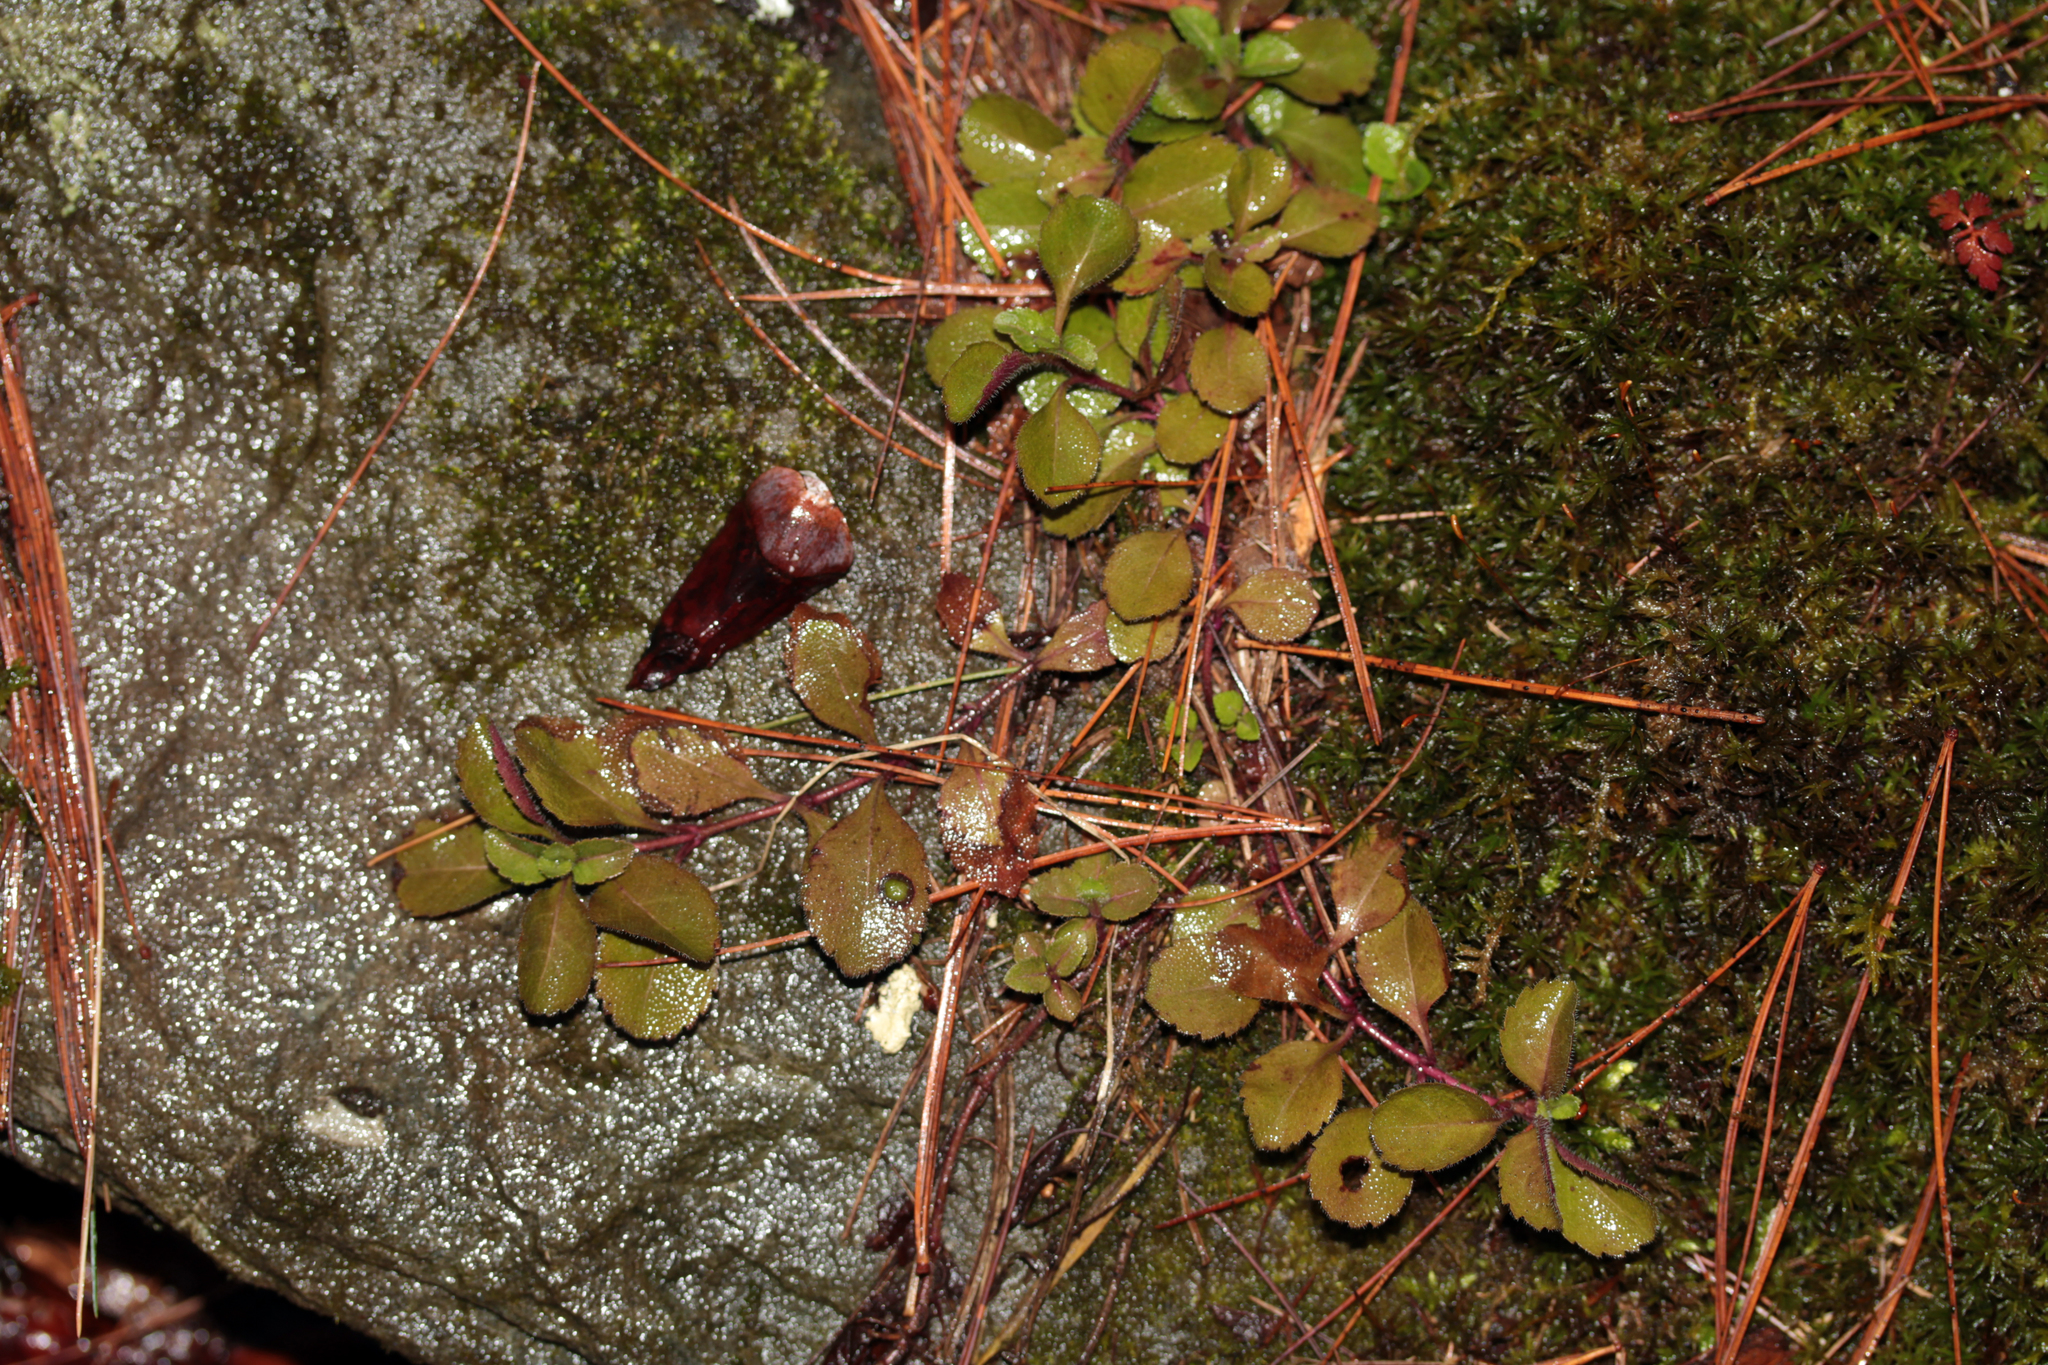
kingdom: Plantae
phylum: Tracheophyta
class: Magnoliopsida
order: Lamiales
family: Plantaginaceae
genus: Veronica
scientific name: Veronica officinalis
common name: Common speedwell
